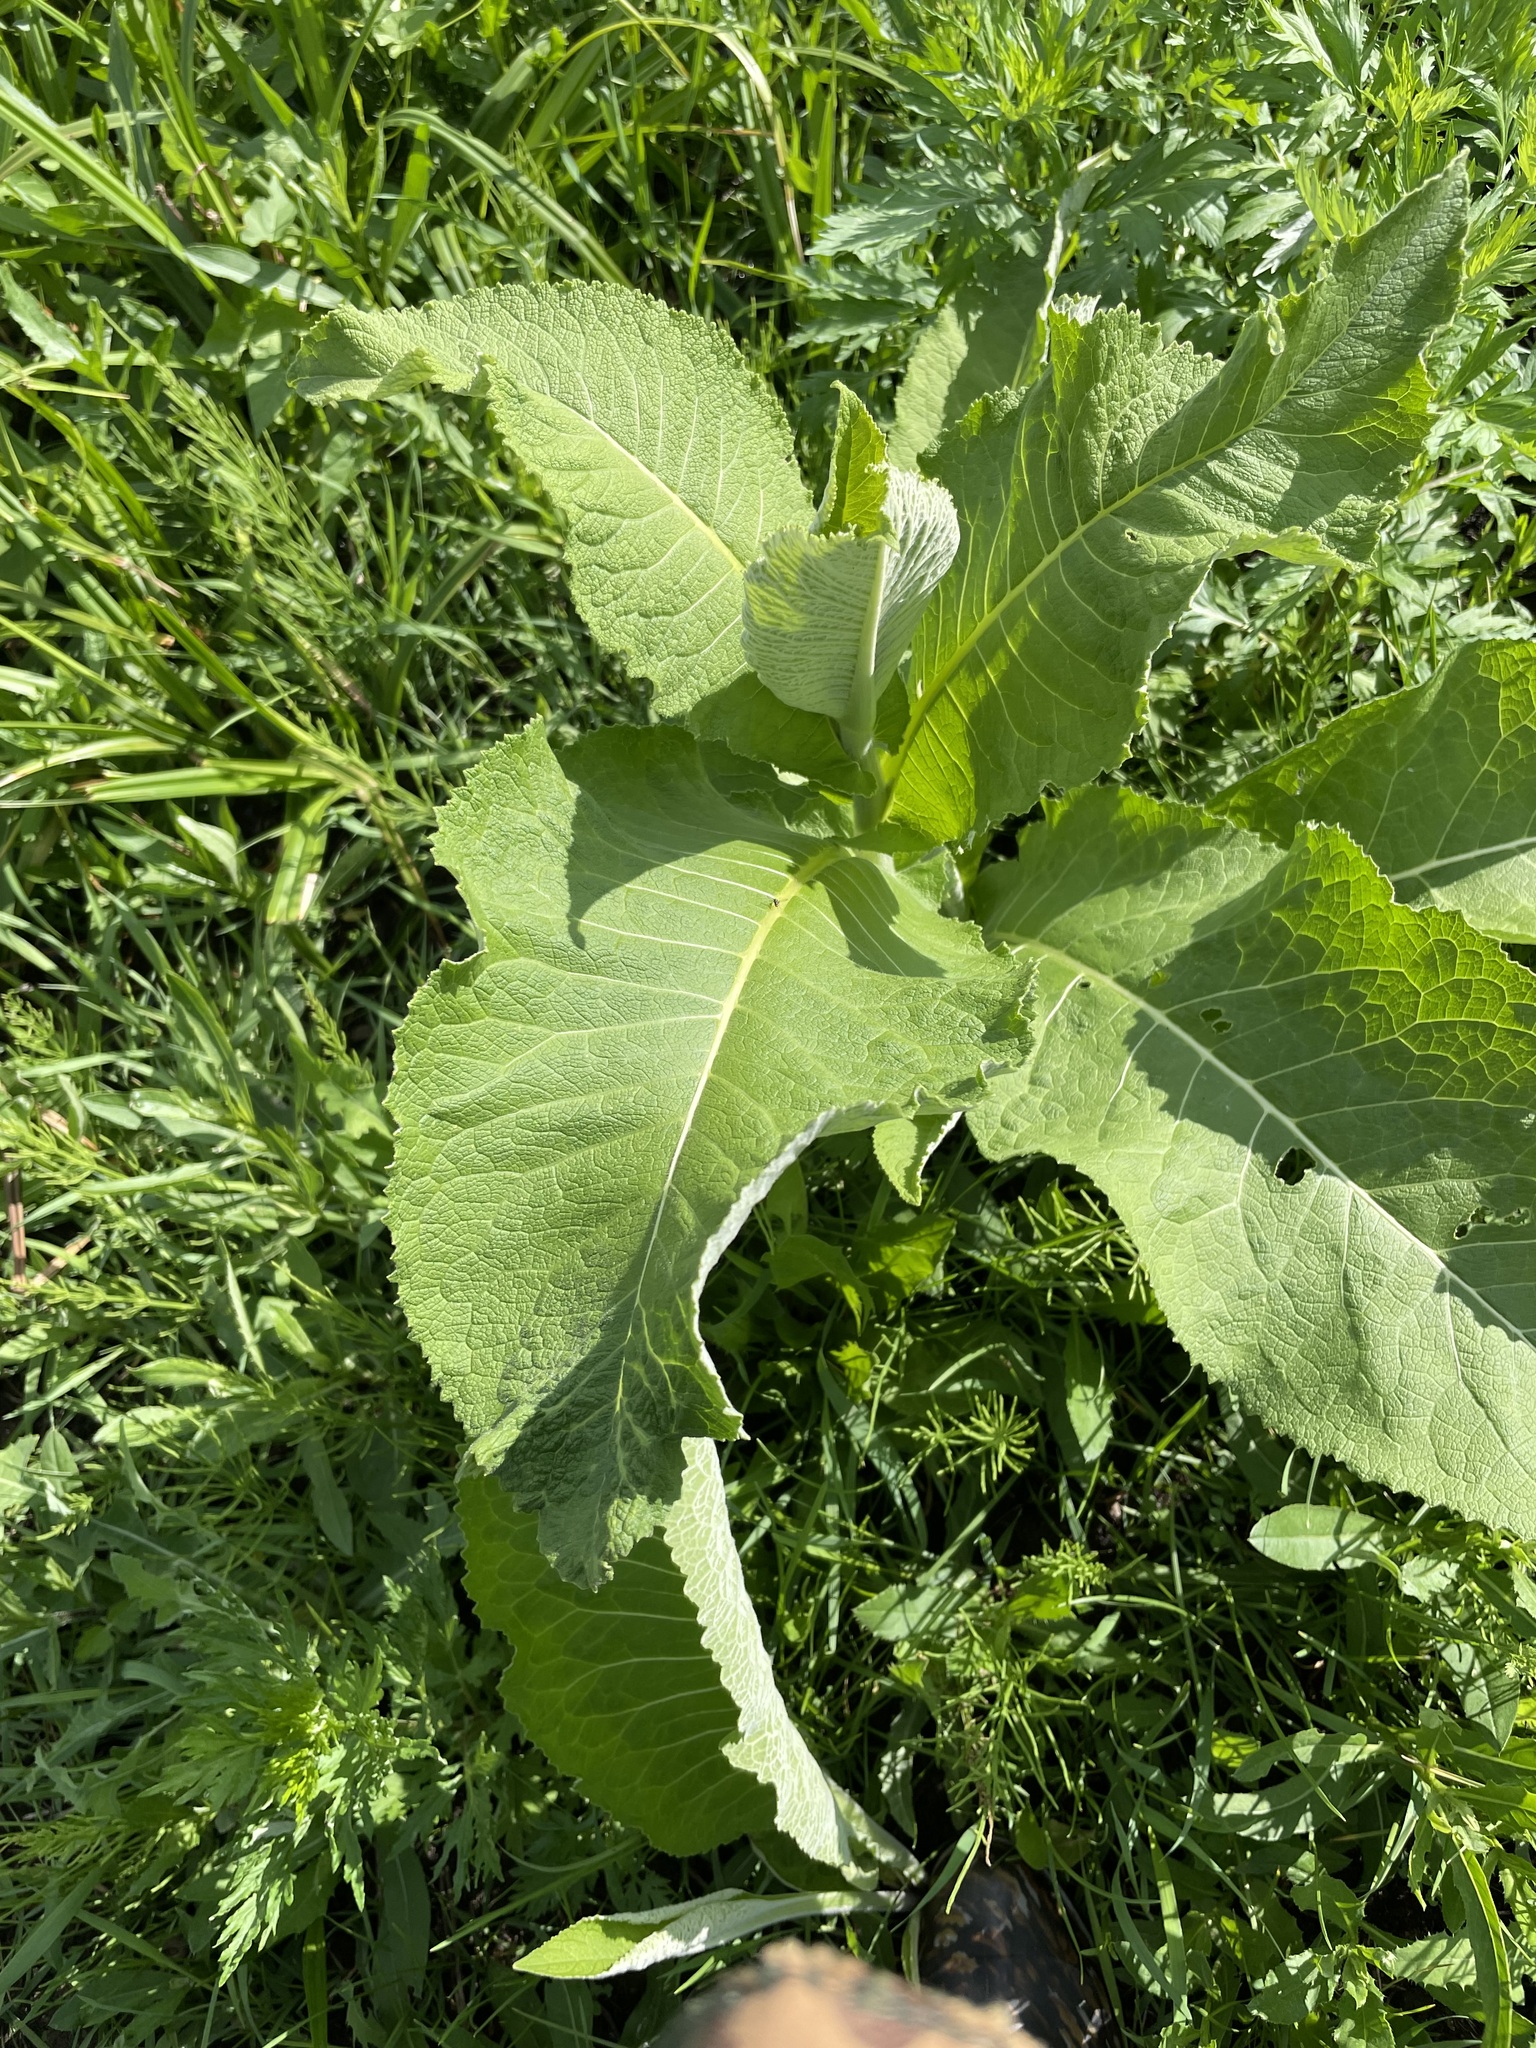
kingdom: Plantae
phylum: Tracheophyta
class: Magnoliopsida
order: Asterales
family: Asteraceae
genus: Inula
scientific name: Inula helenium
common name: Elecampane
